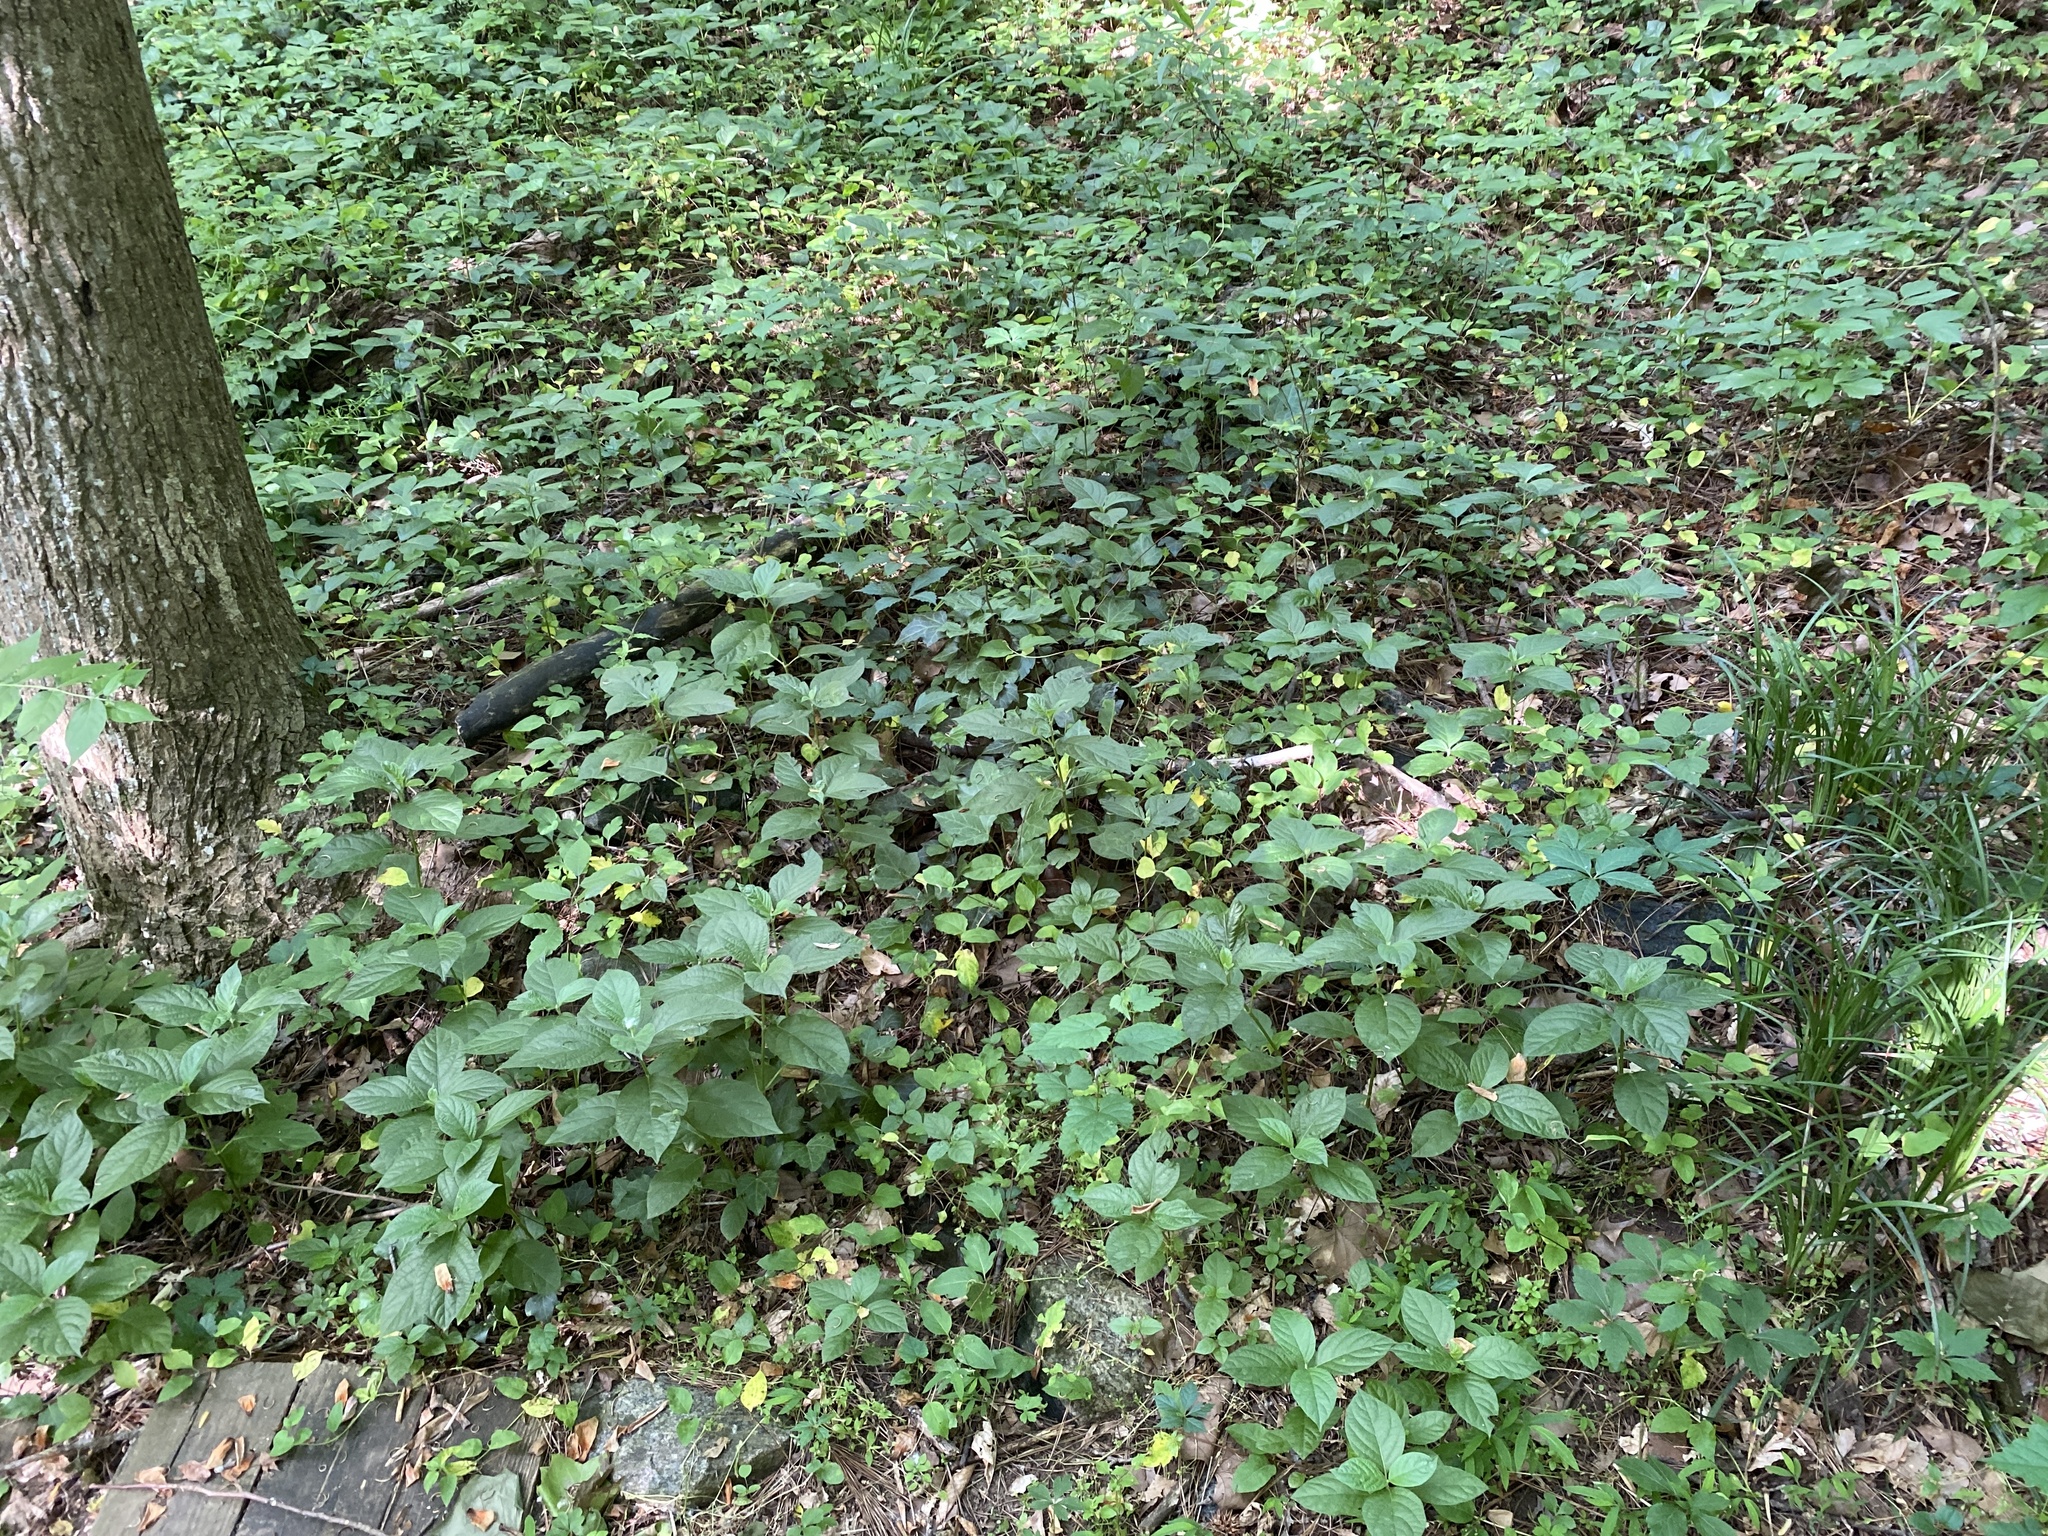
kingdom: Plantae
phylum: Tracheophyta
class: Magnoliopsida
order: Caryophyllales
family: Amaranthaceae
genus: Achyranthes
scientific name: Achyranthes bidentata
